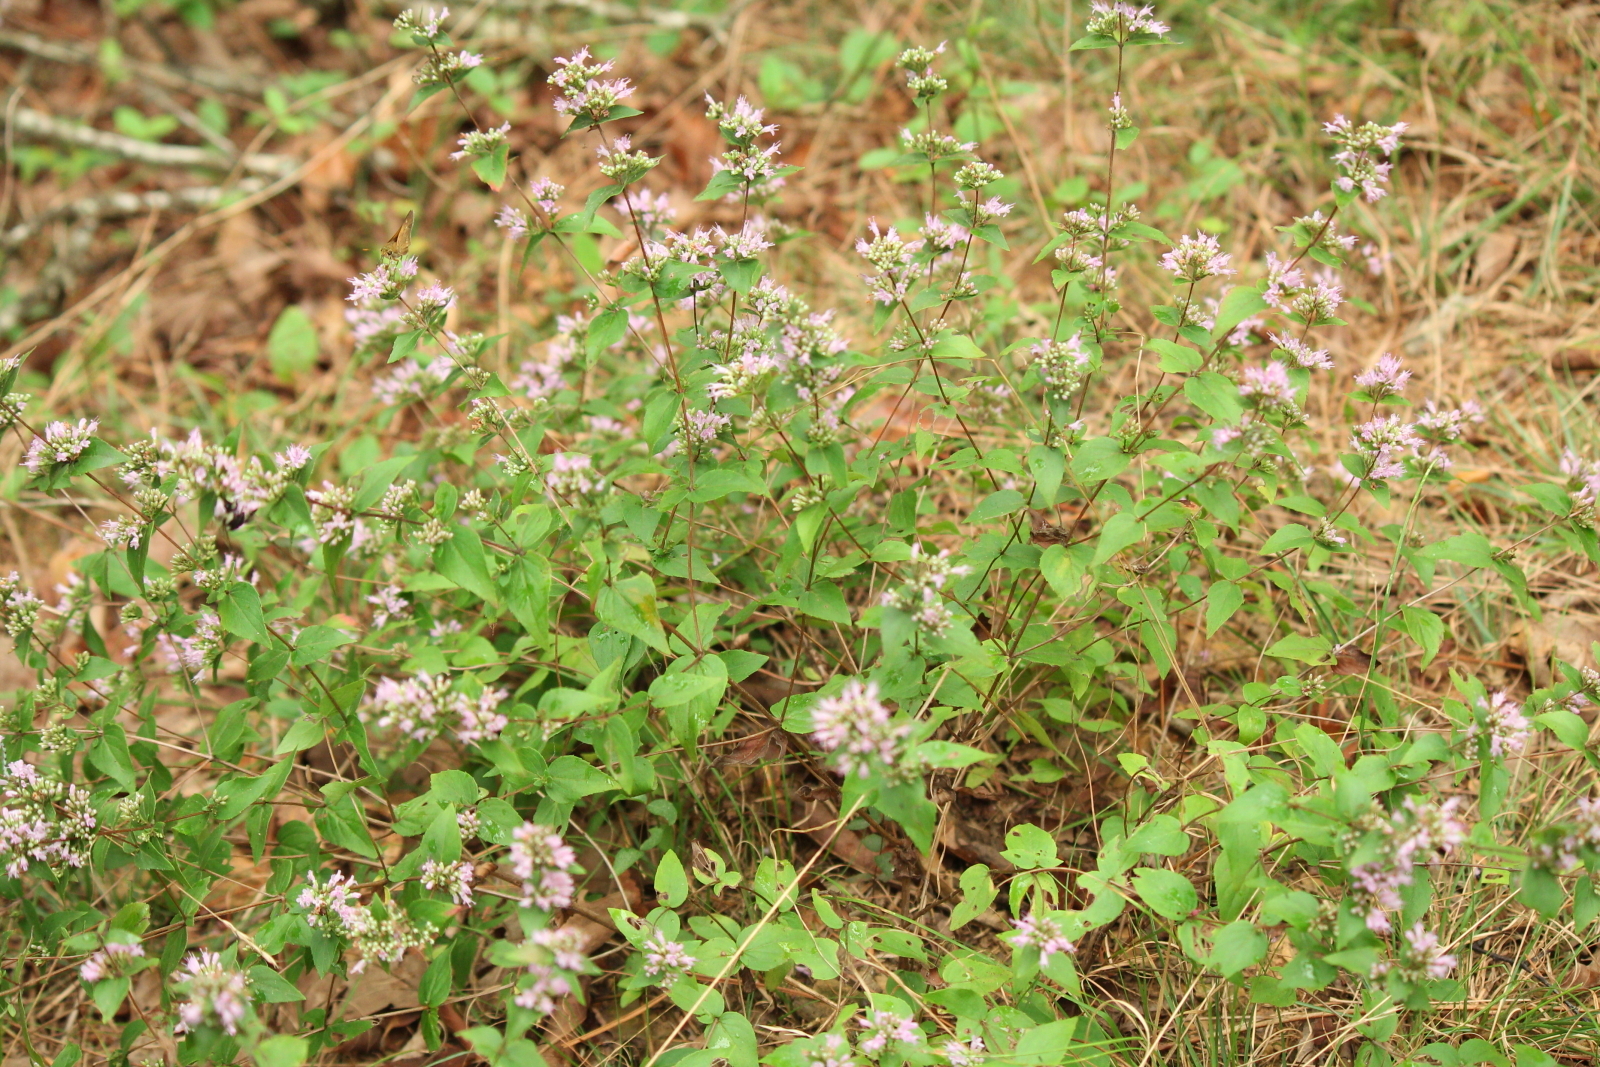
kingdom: Plantae
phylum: Tracheophyta
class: Magnoliopsida
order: Lamiales
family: Lamiaceae
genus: Cunila
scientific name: Cunila origanoides
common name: American dittany
